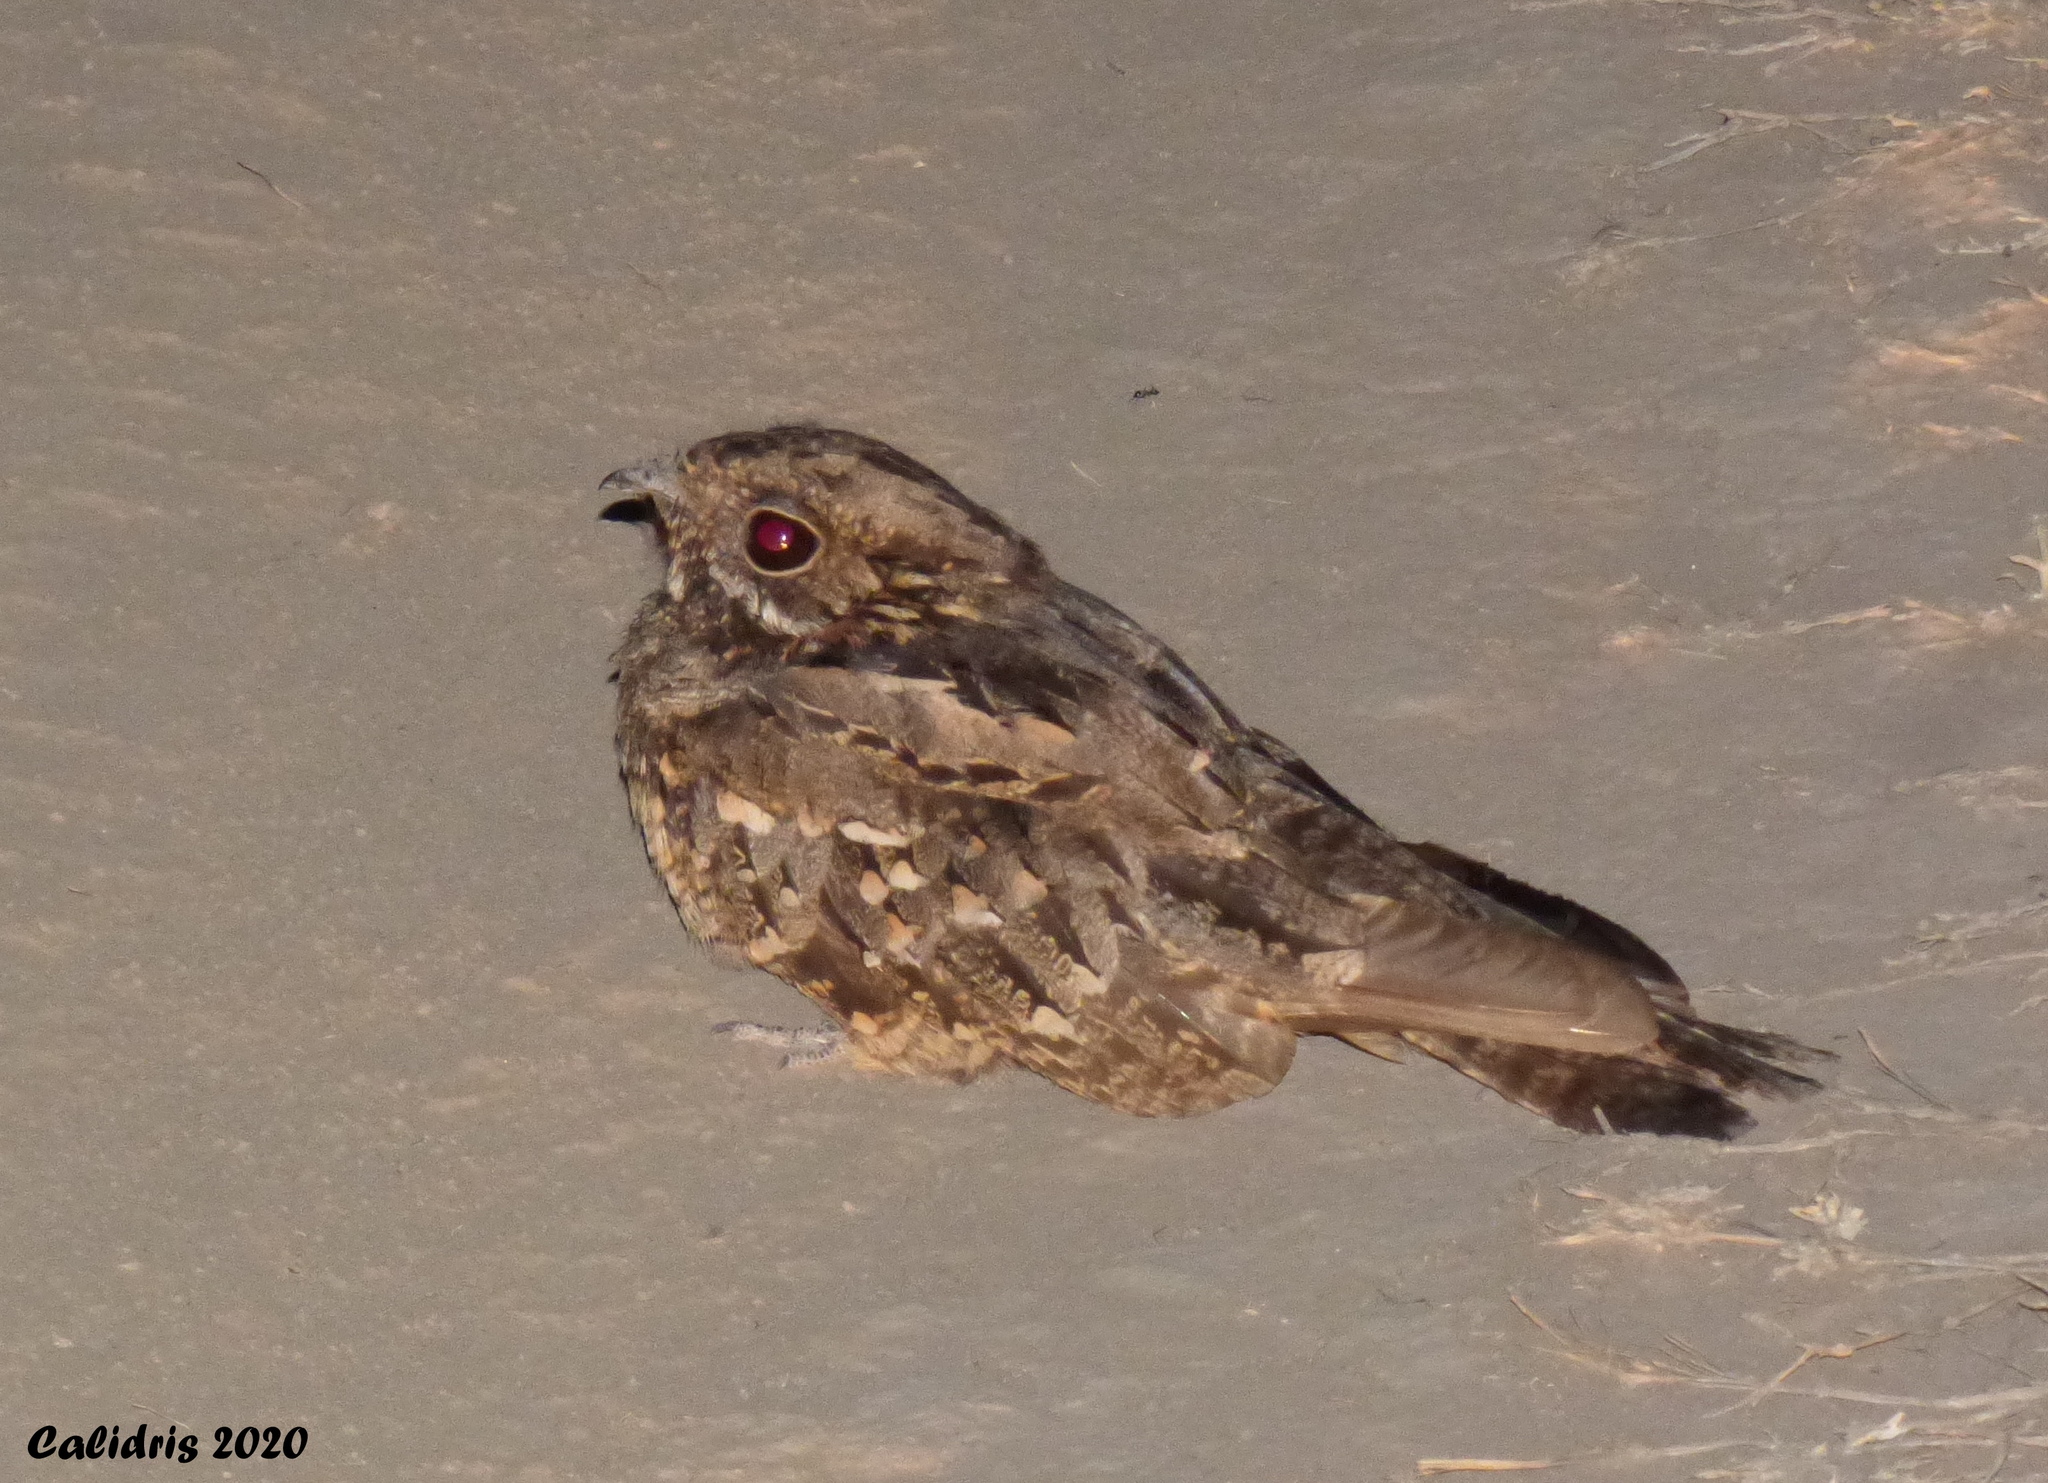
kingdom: Animalia
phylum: Chordata
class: Aves
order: Caprimulgiformes
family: Caprimulgidae
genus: Setopagis
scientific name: Setopagis parvula
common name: Little nightjar
